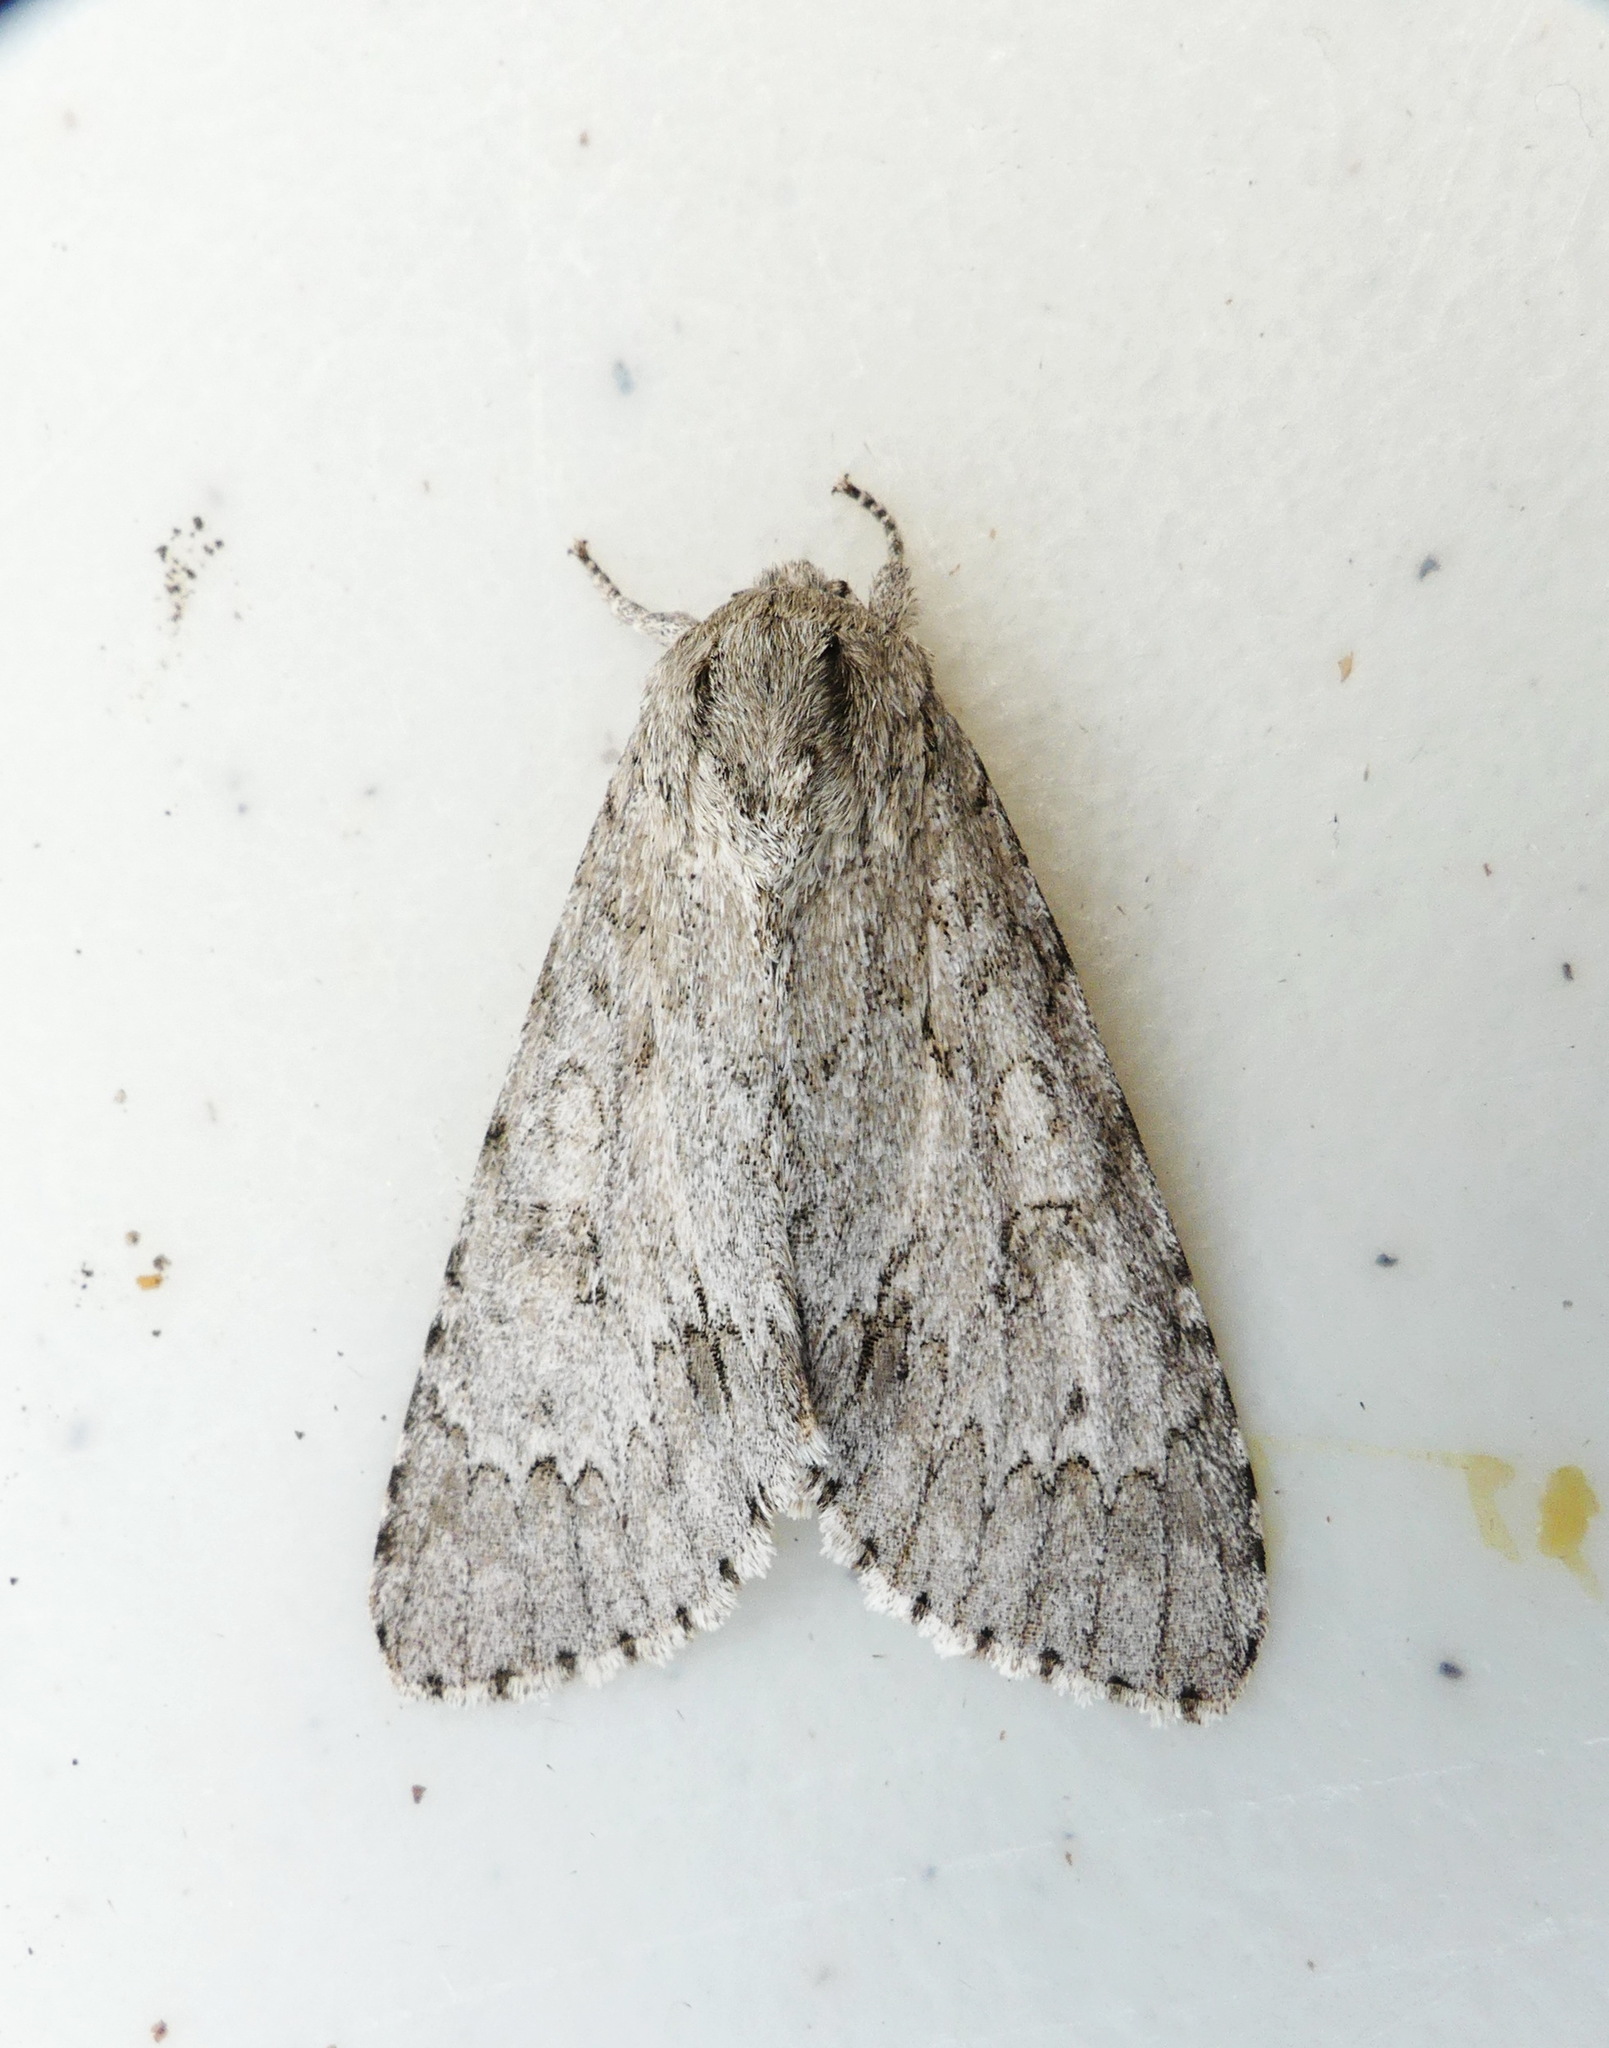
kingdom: Animalia
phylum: Arthropoda
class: Insecta
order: Lepidoptera
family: Noctuidae
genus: Acronicta
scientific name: Acronicta insita
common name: Large gray dagger
